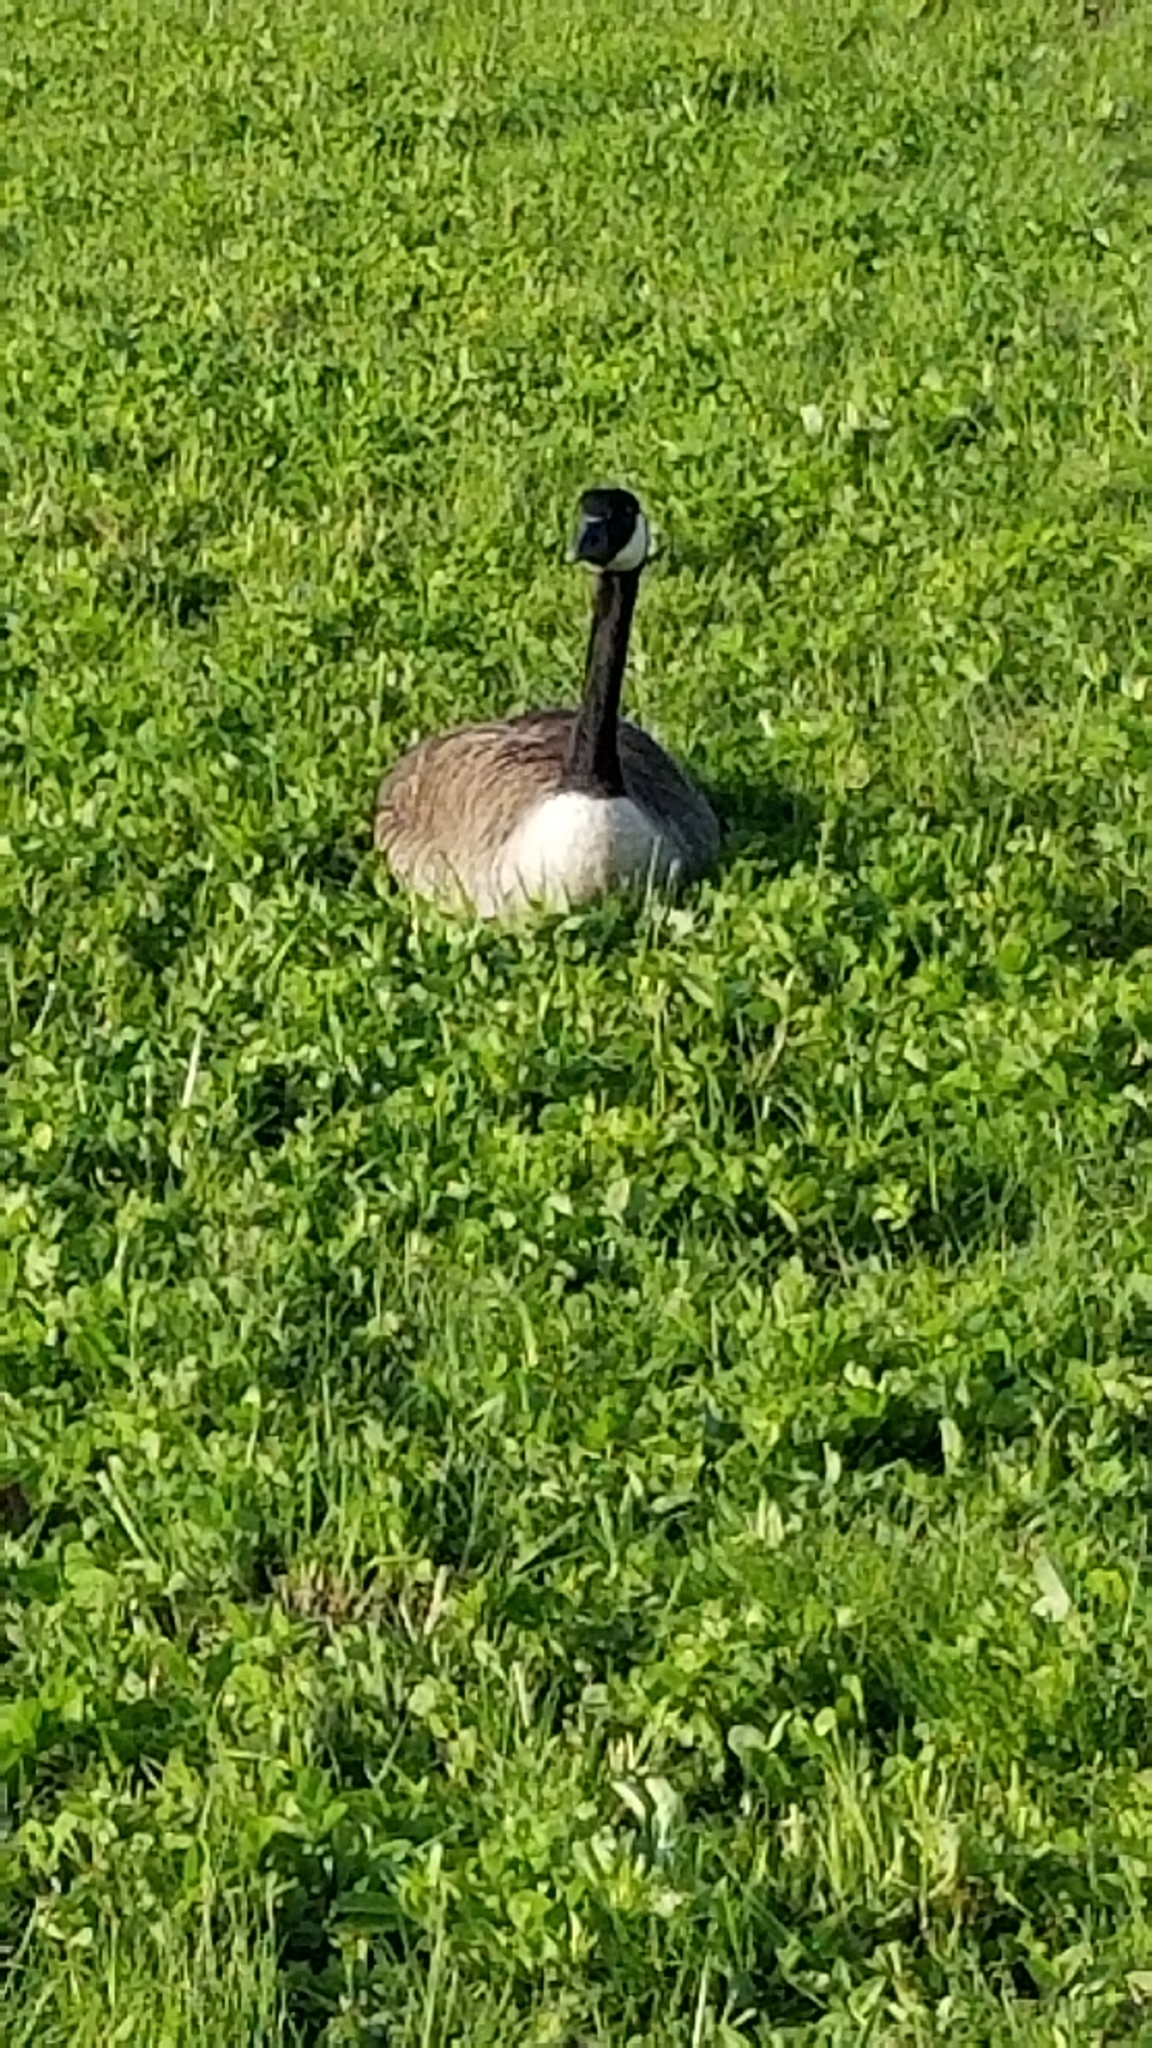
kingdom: Animalia
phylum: Chordata
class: Aves
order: Anseriformes
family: Anatidae
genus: Branta
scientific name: Branta canadensis
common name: Canada goose
